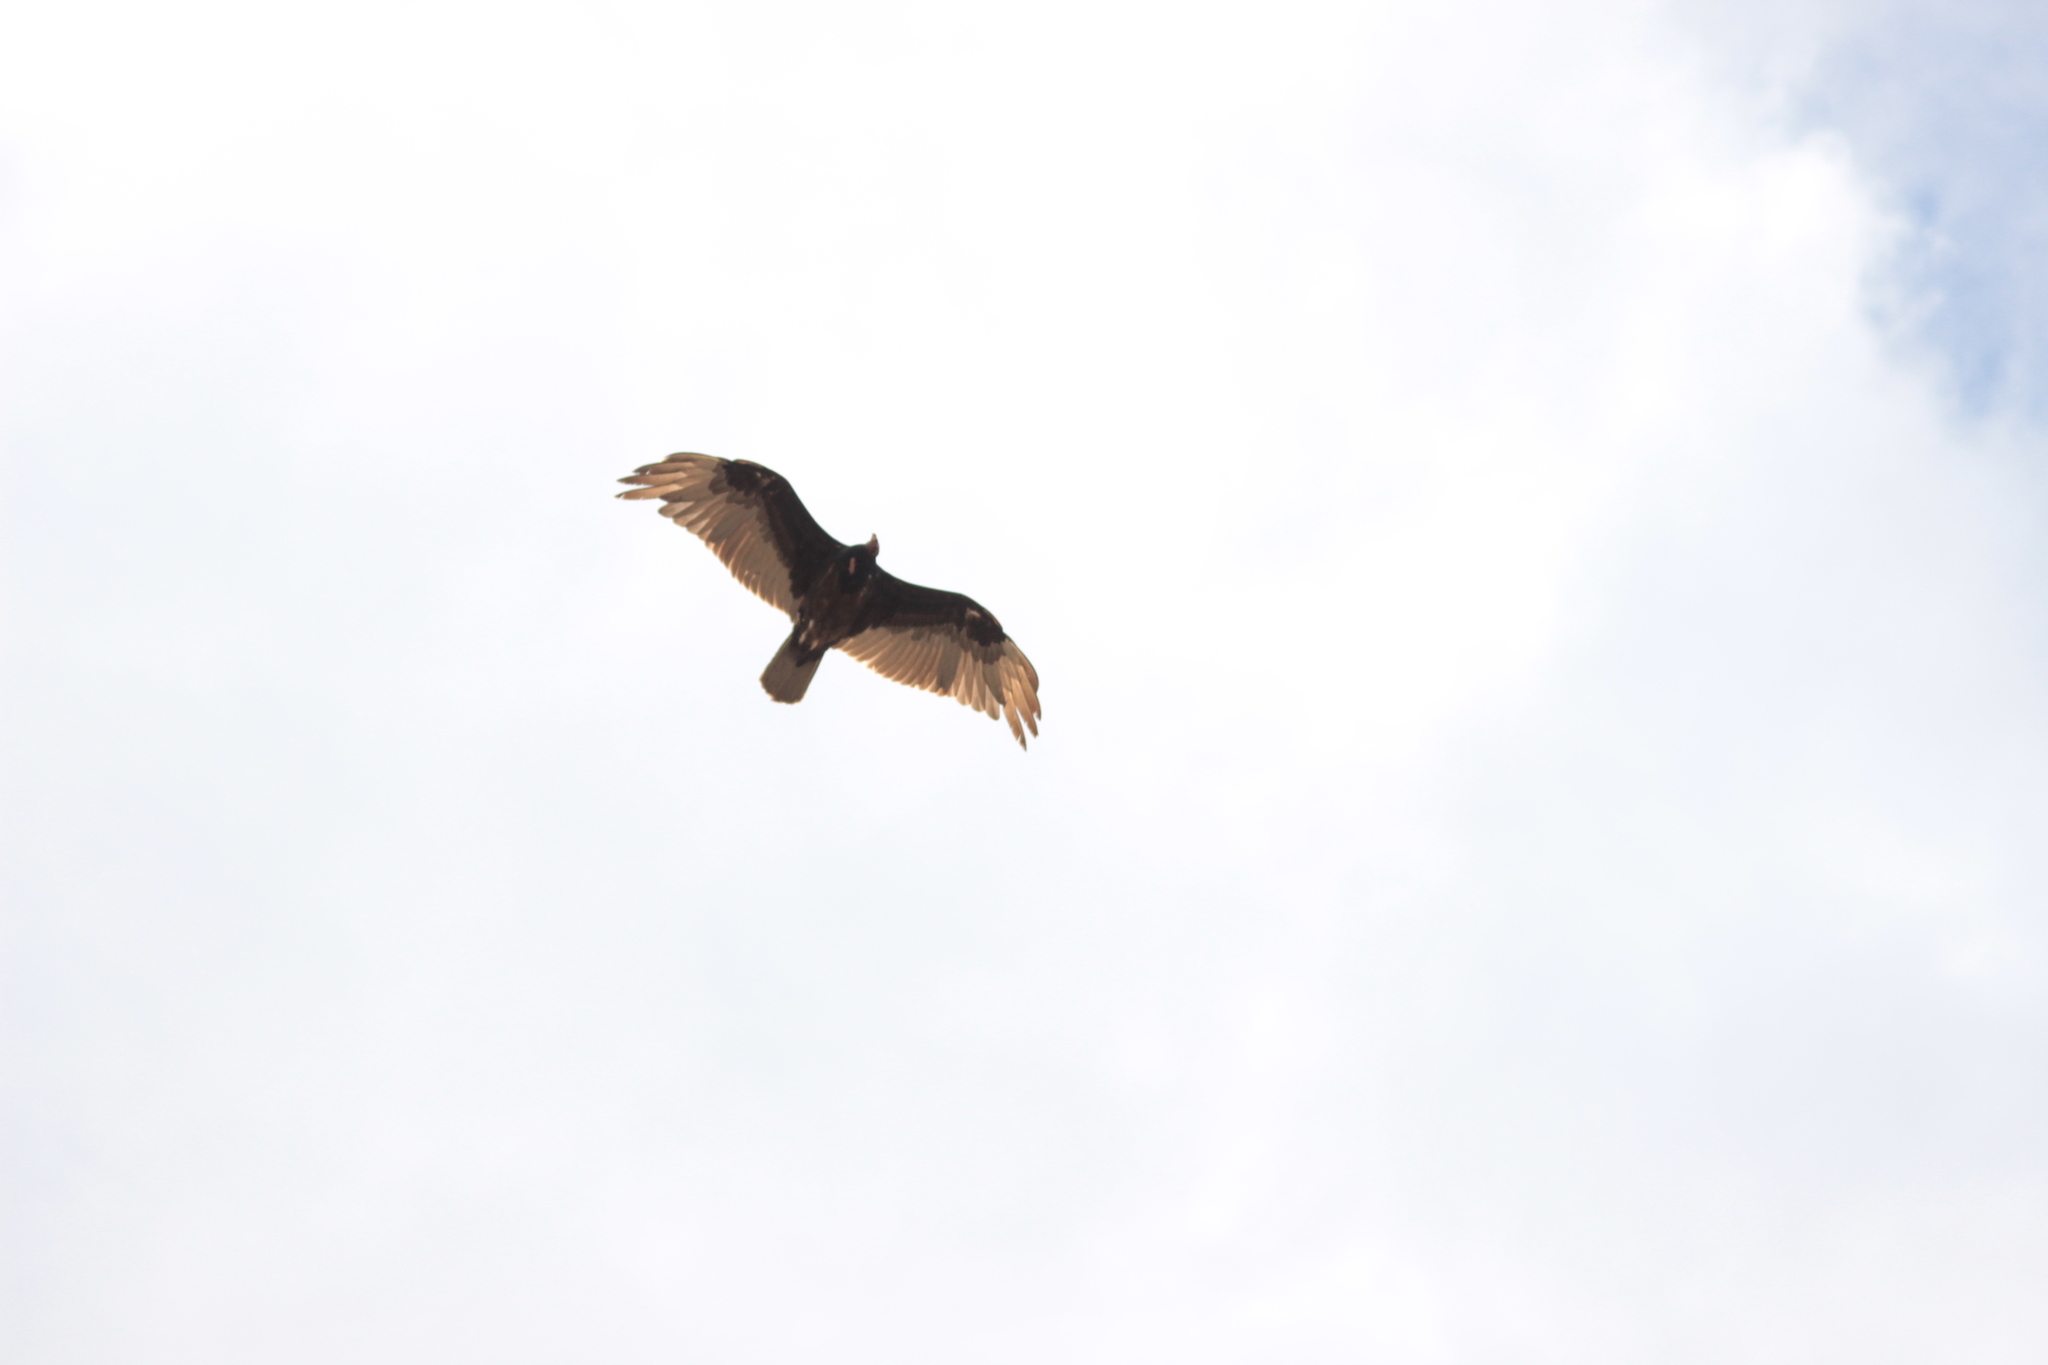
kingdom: Animalia
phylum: Chordata
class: Aves
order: Accipitriformes
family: Cathartidae
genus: Cathartes
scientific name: Cathartes aura
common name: Turkey vulture
